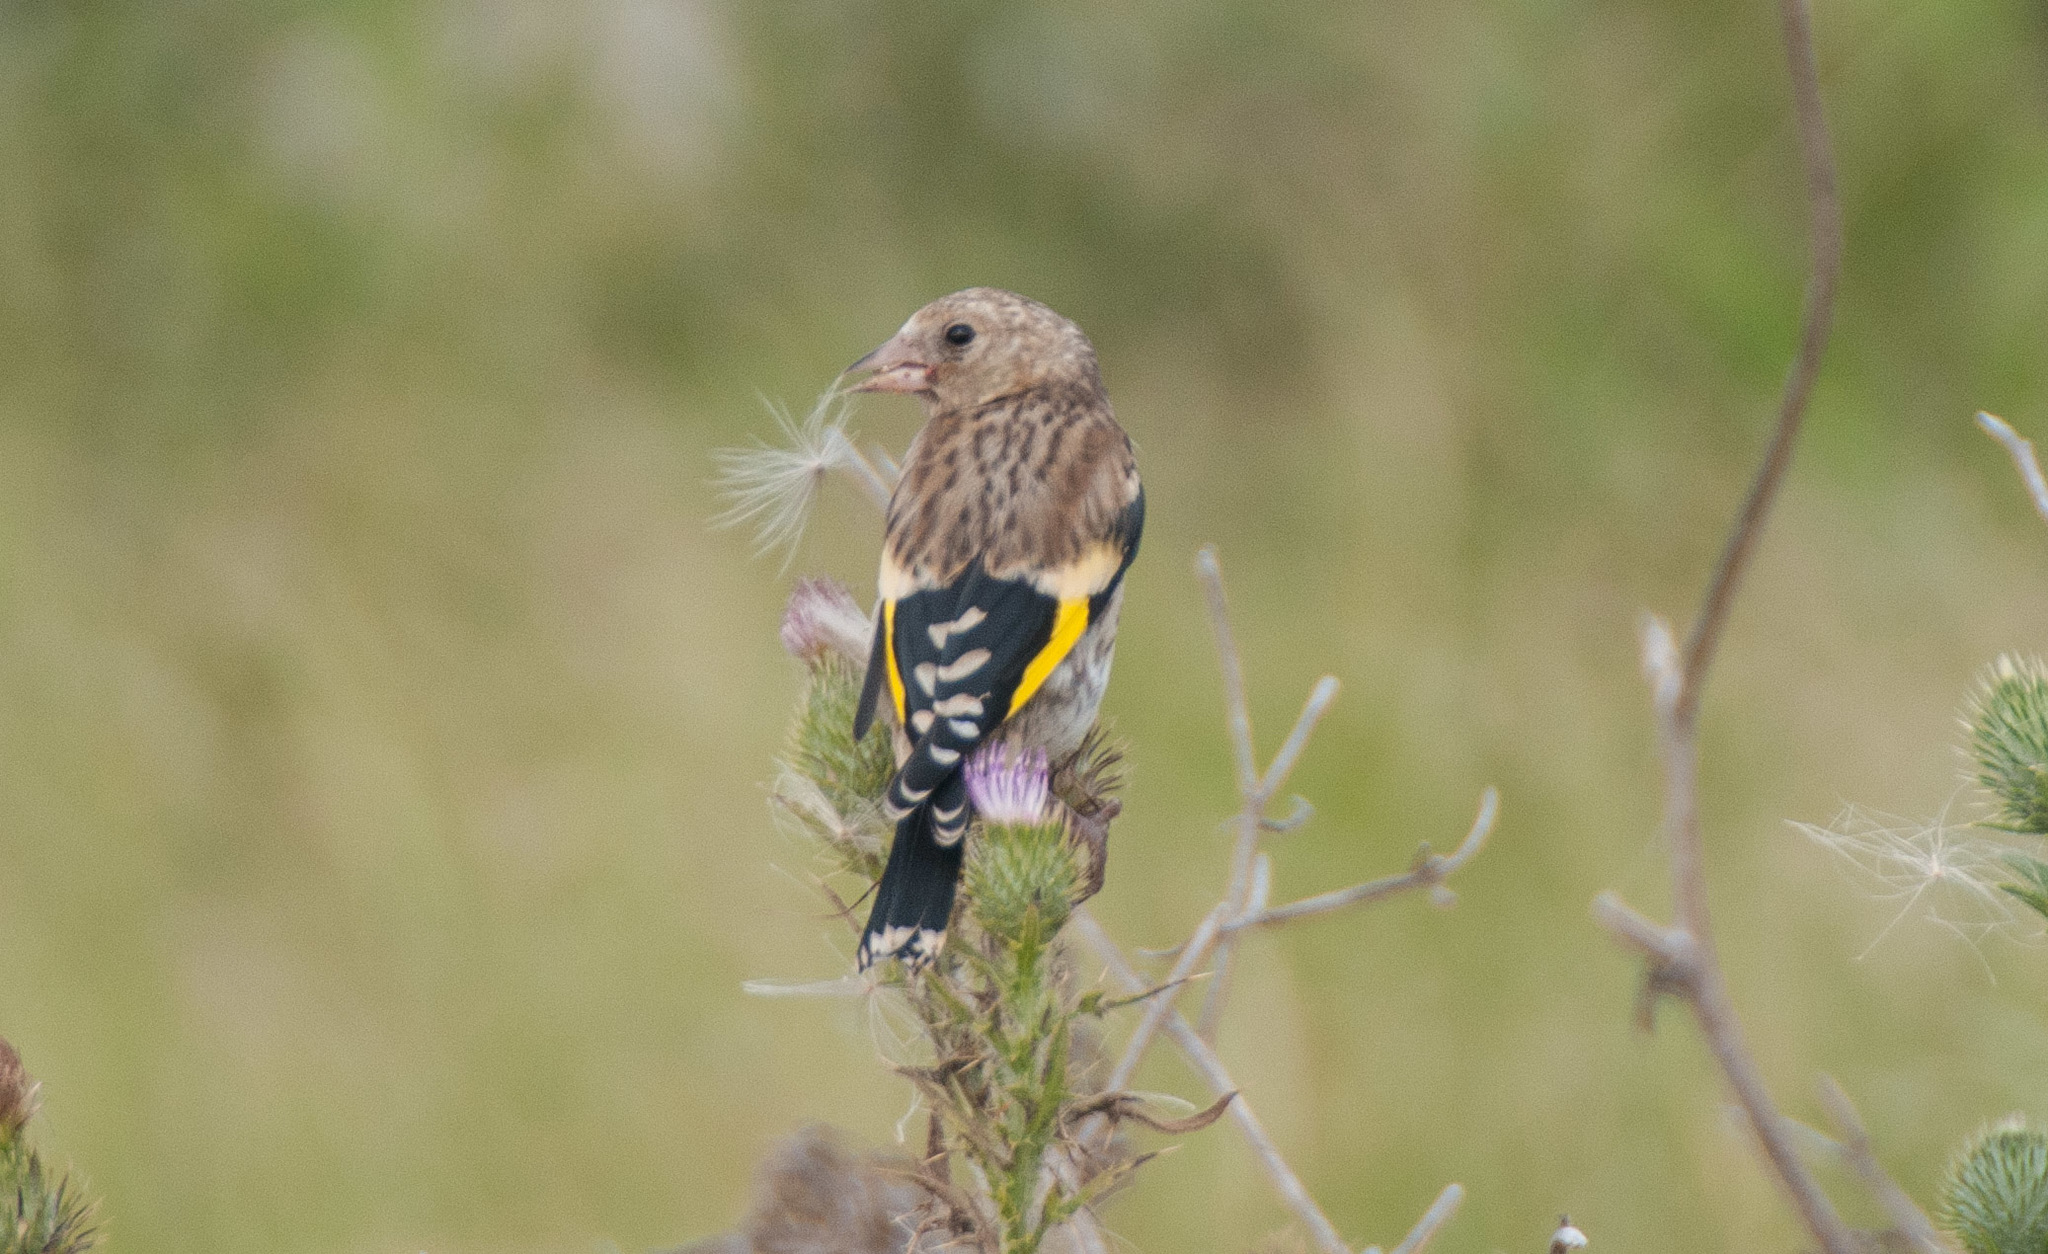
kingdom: Animalia
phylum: Chordata
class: Aves
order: Passeriformes
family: Fringillidae
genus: Carduelis
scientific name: Carduelis carduelis
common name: European goldfinch
